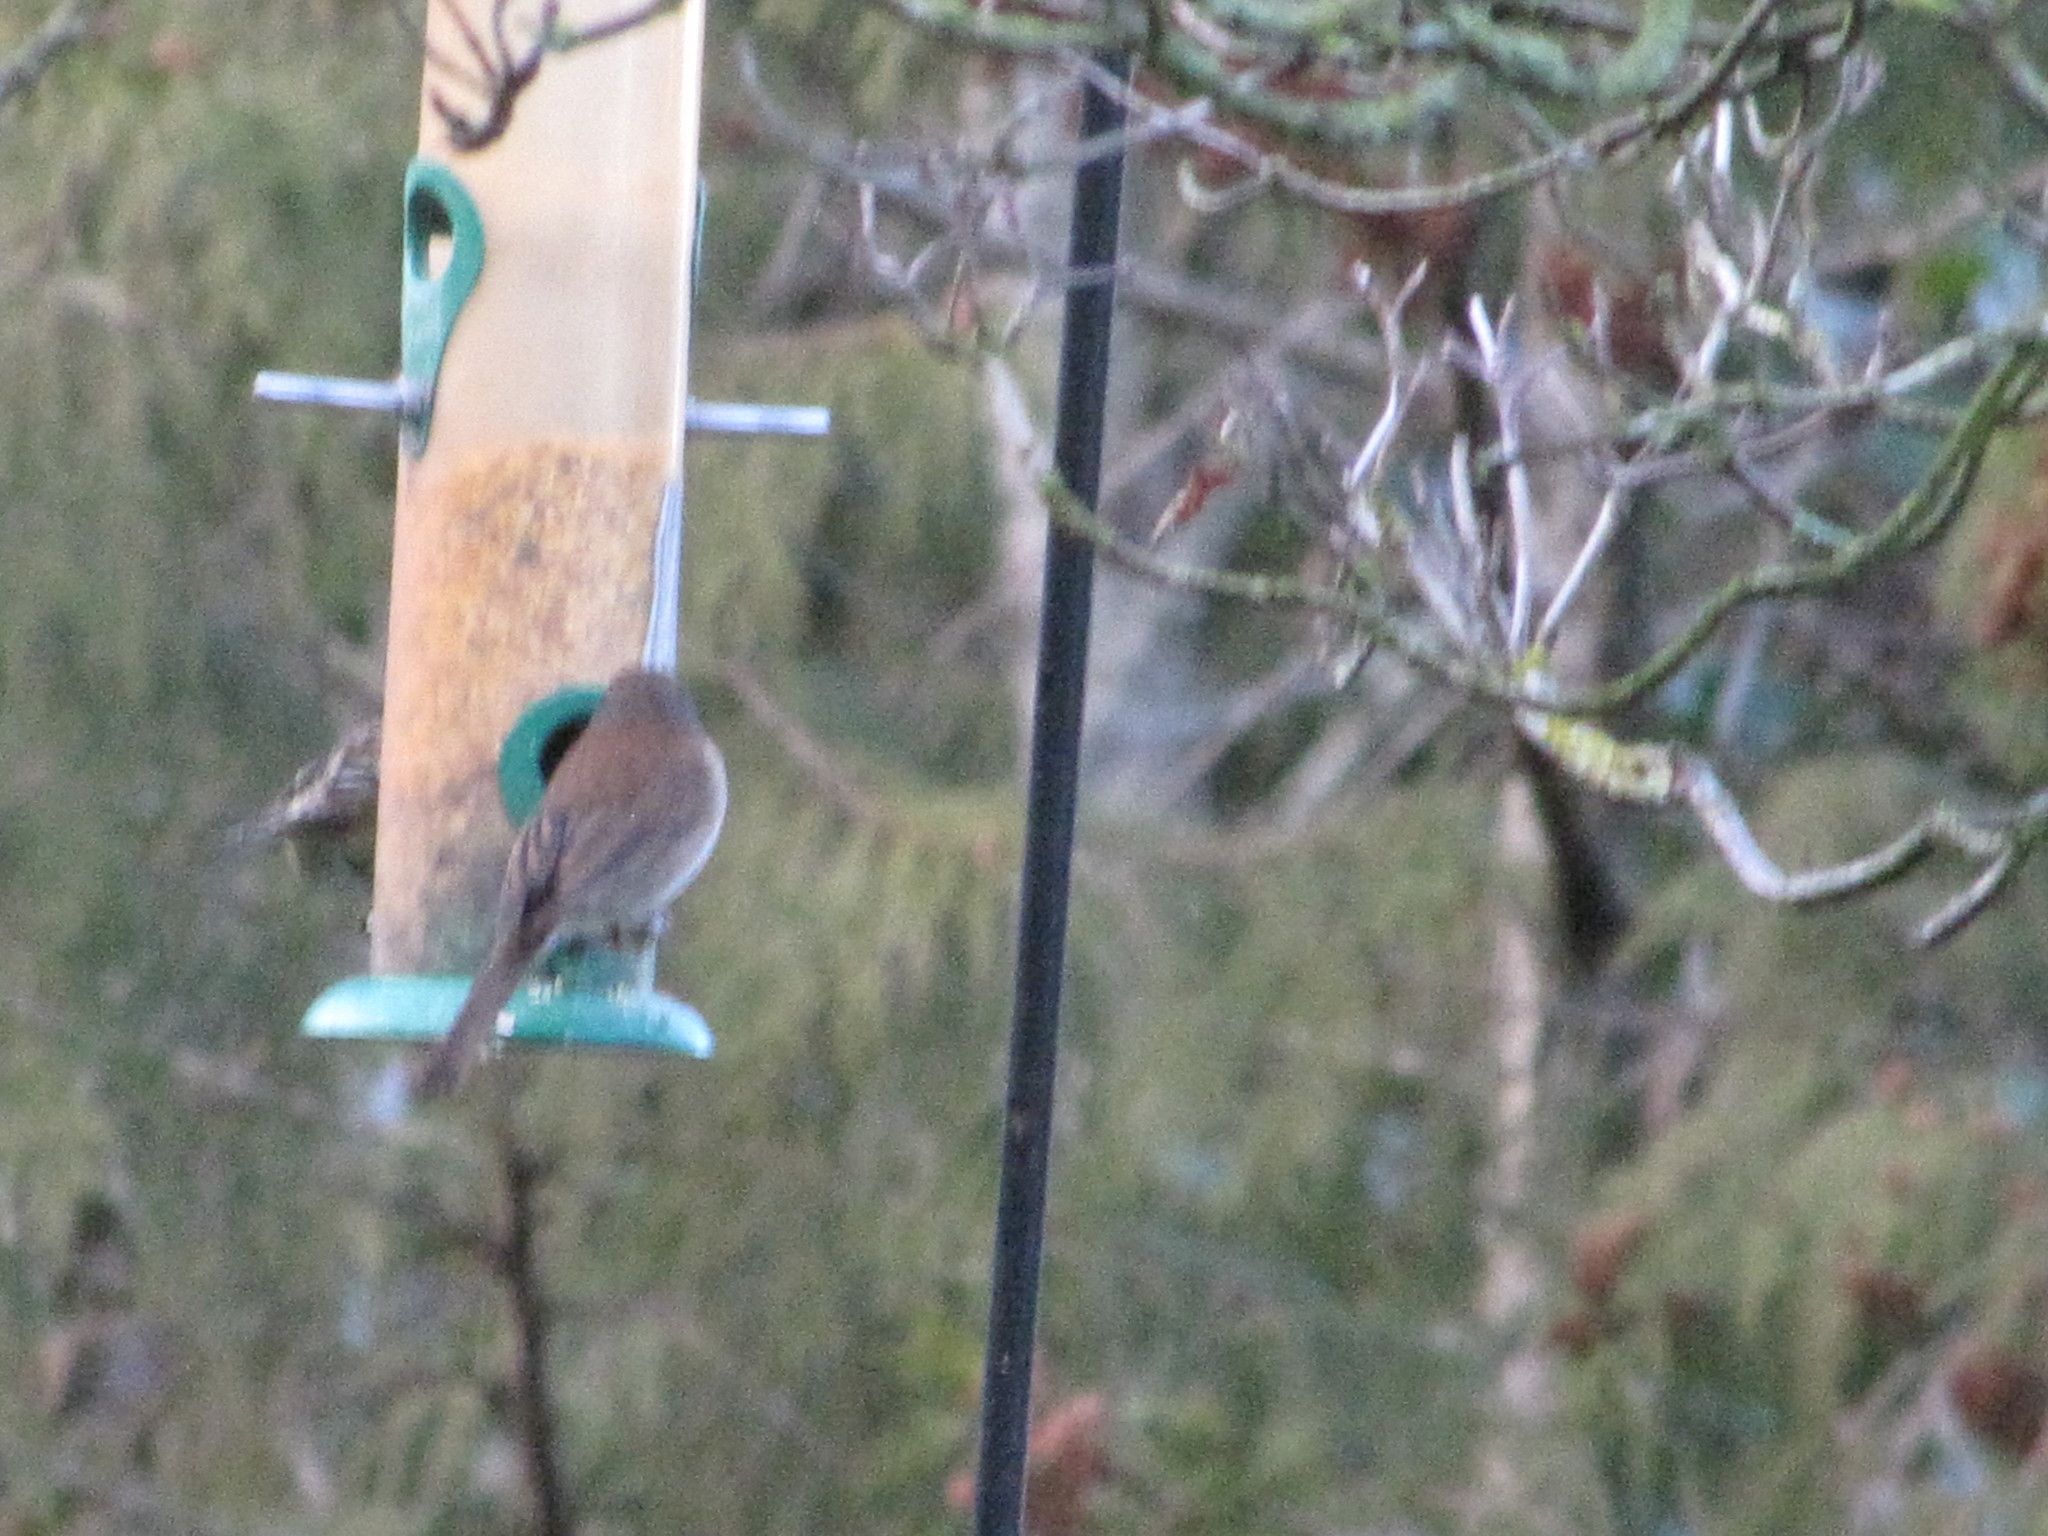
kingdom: Animalia
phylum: Chordata
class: Aves
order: Passeriformes
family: Passerellidae
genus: Junco
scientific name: Junco hyemalis
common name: Dark-eyed junco
